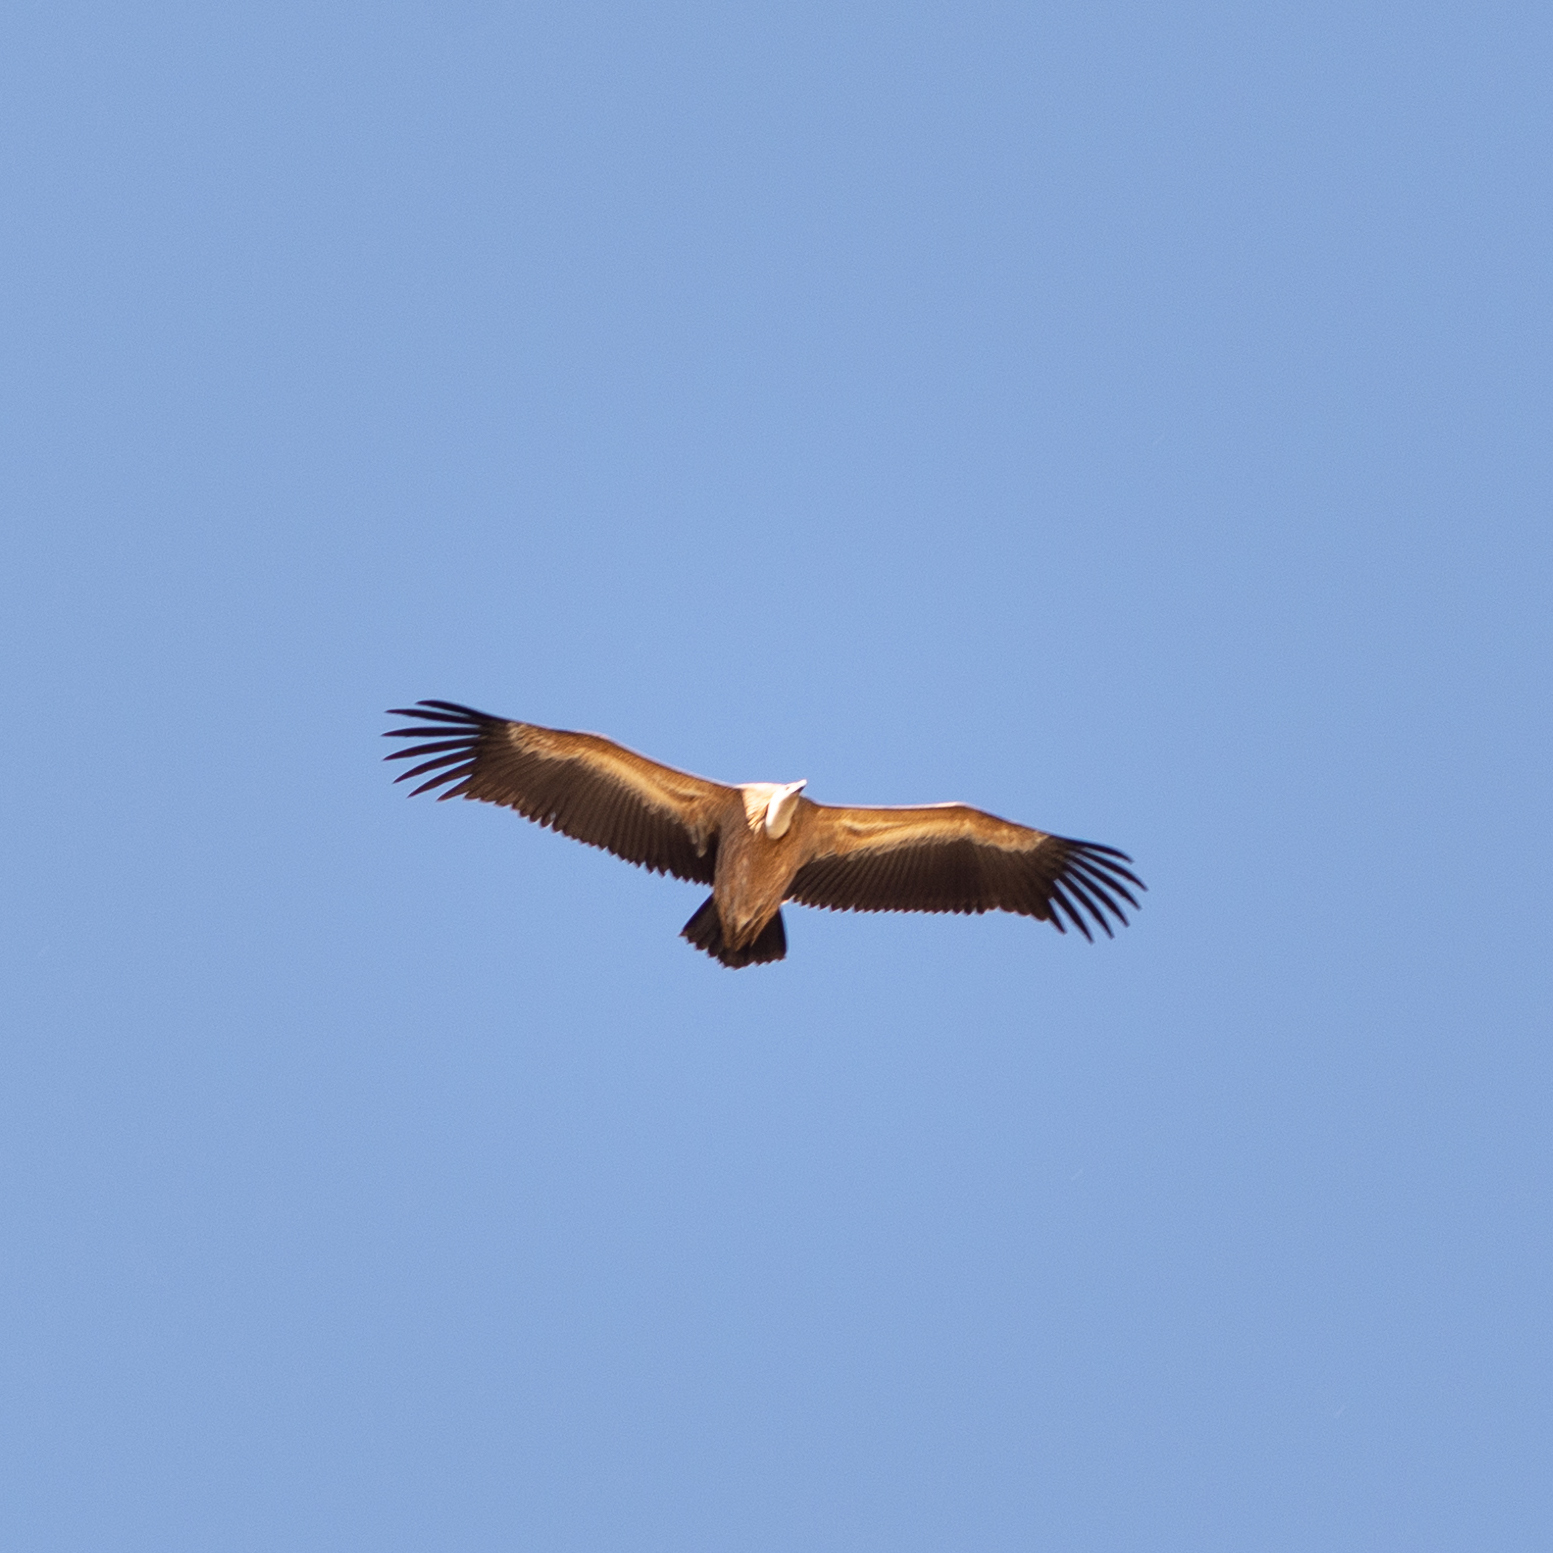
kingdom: Animalia
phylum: Chordata
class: Aves
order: Accipitriformes
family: Accipitridae
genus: Gyps
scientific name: Gyps fulvus
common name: Griffon vulture
